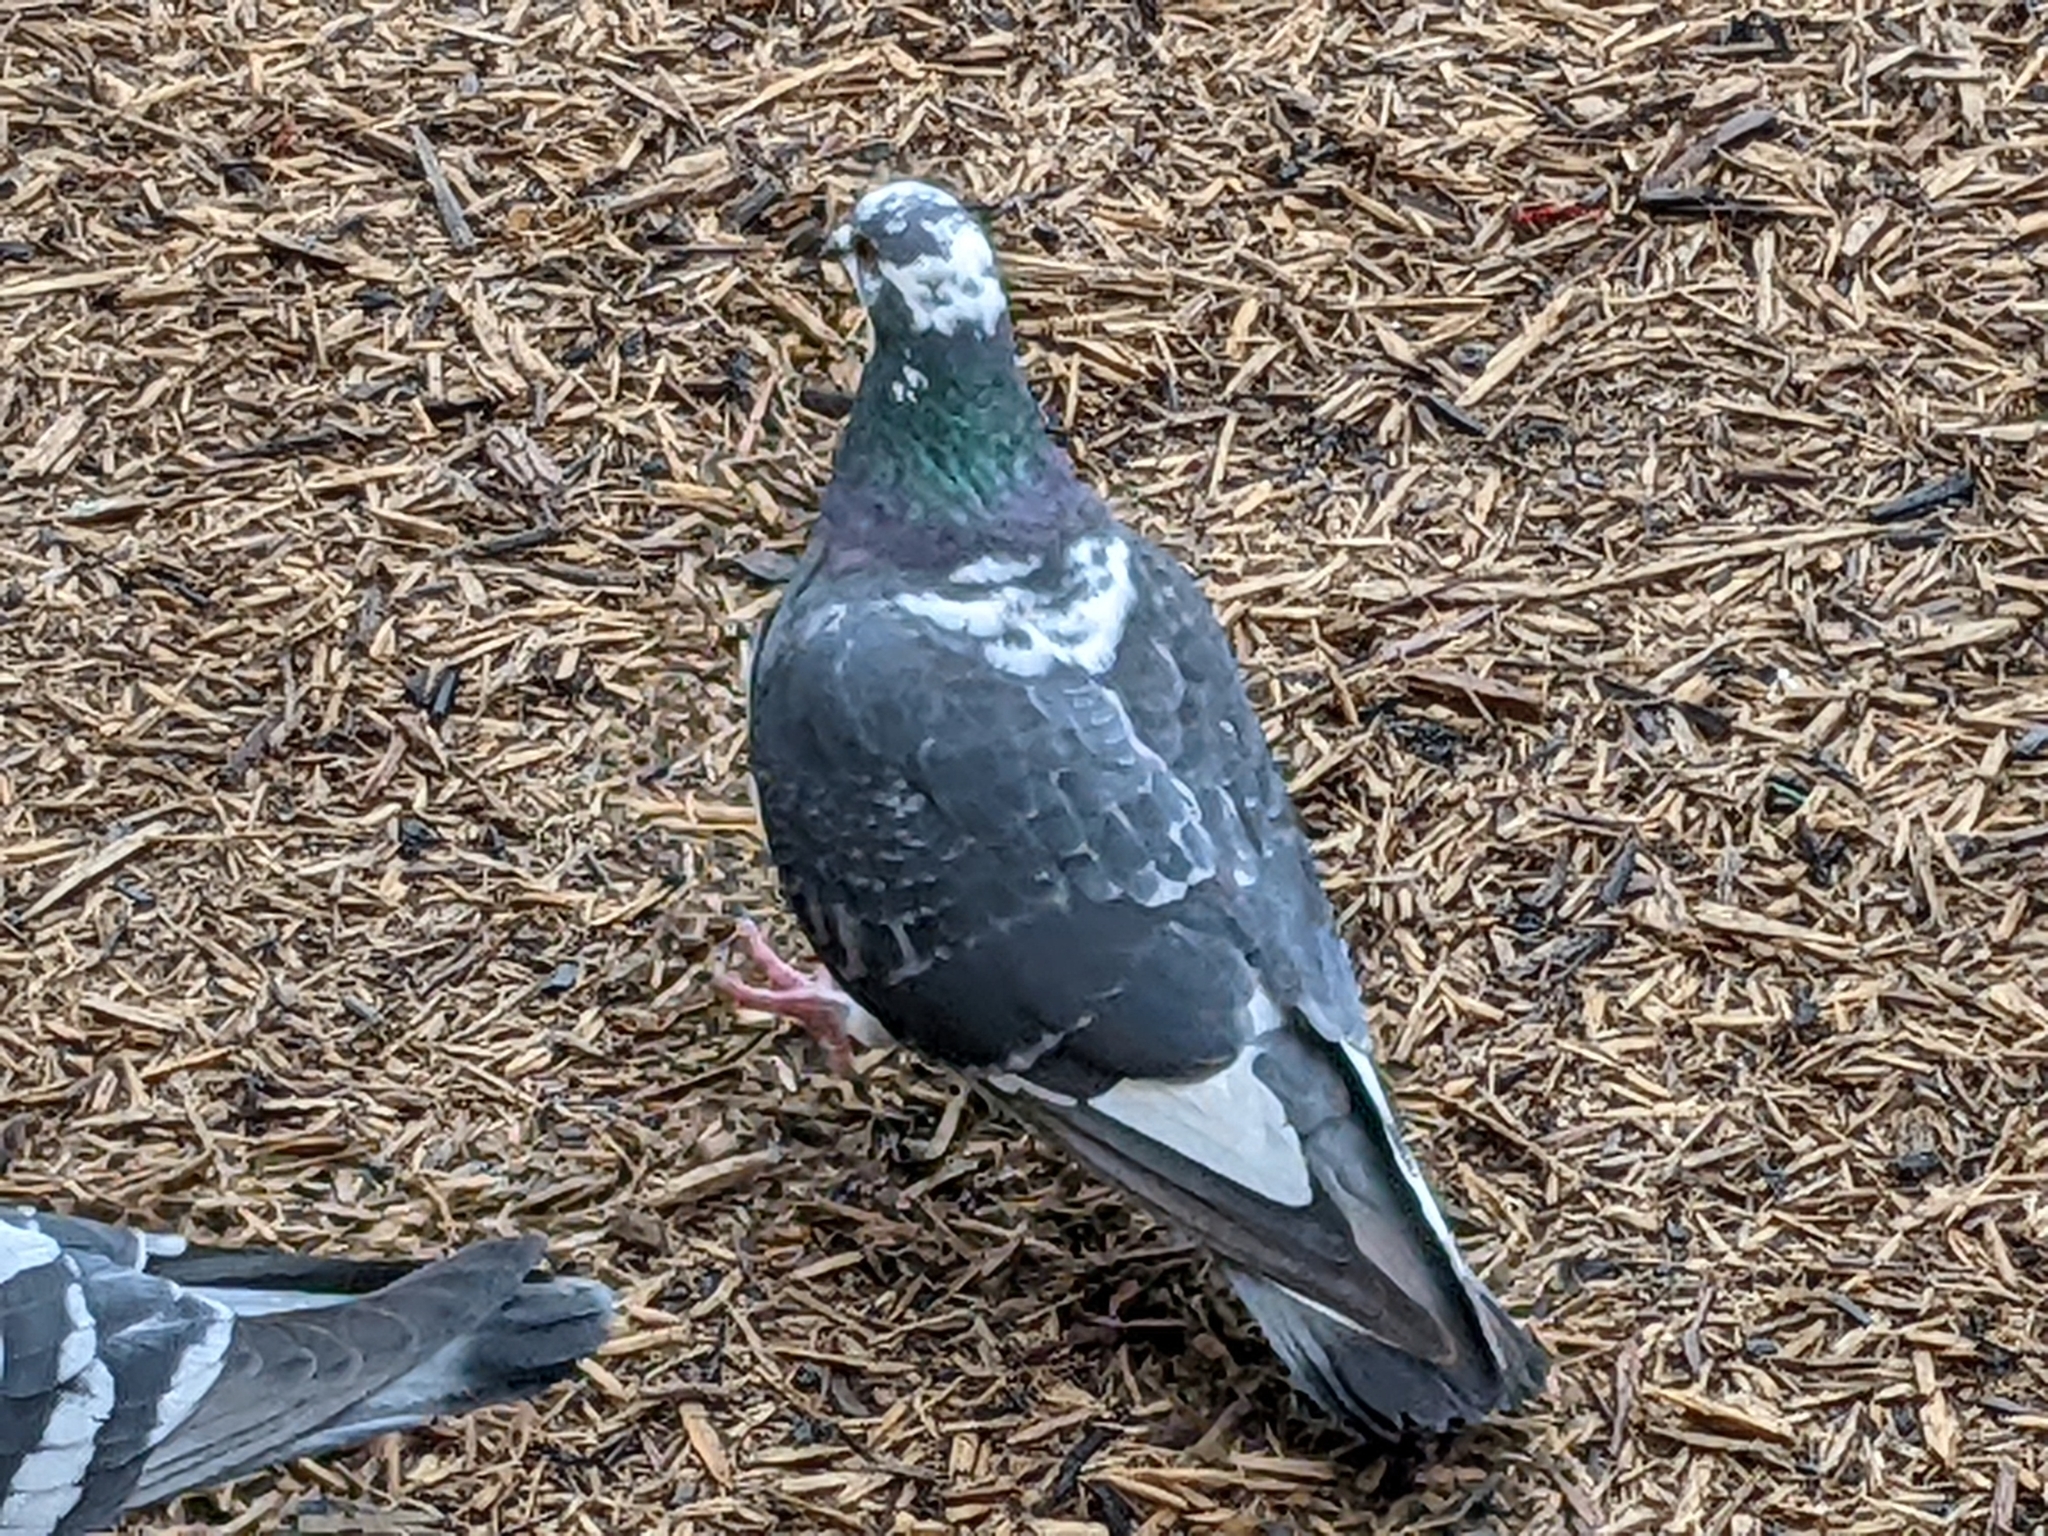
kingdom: Animalia
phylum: Chordata
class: Aves
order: Columbiformes
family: Columbidae
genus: Columba
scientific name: Columba livia
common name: Rock pigeon
